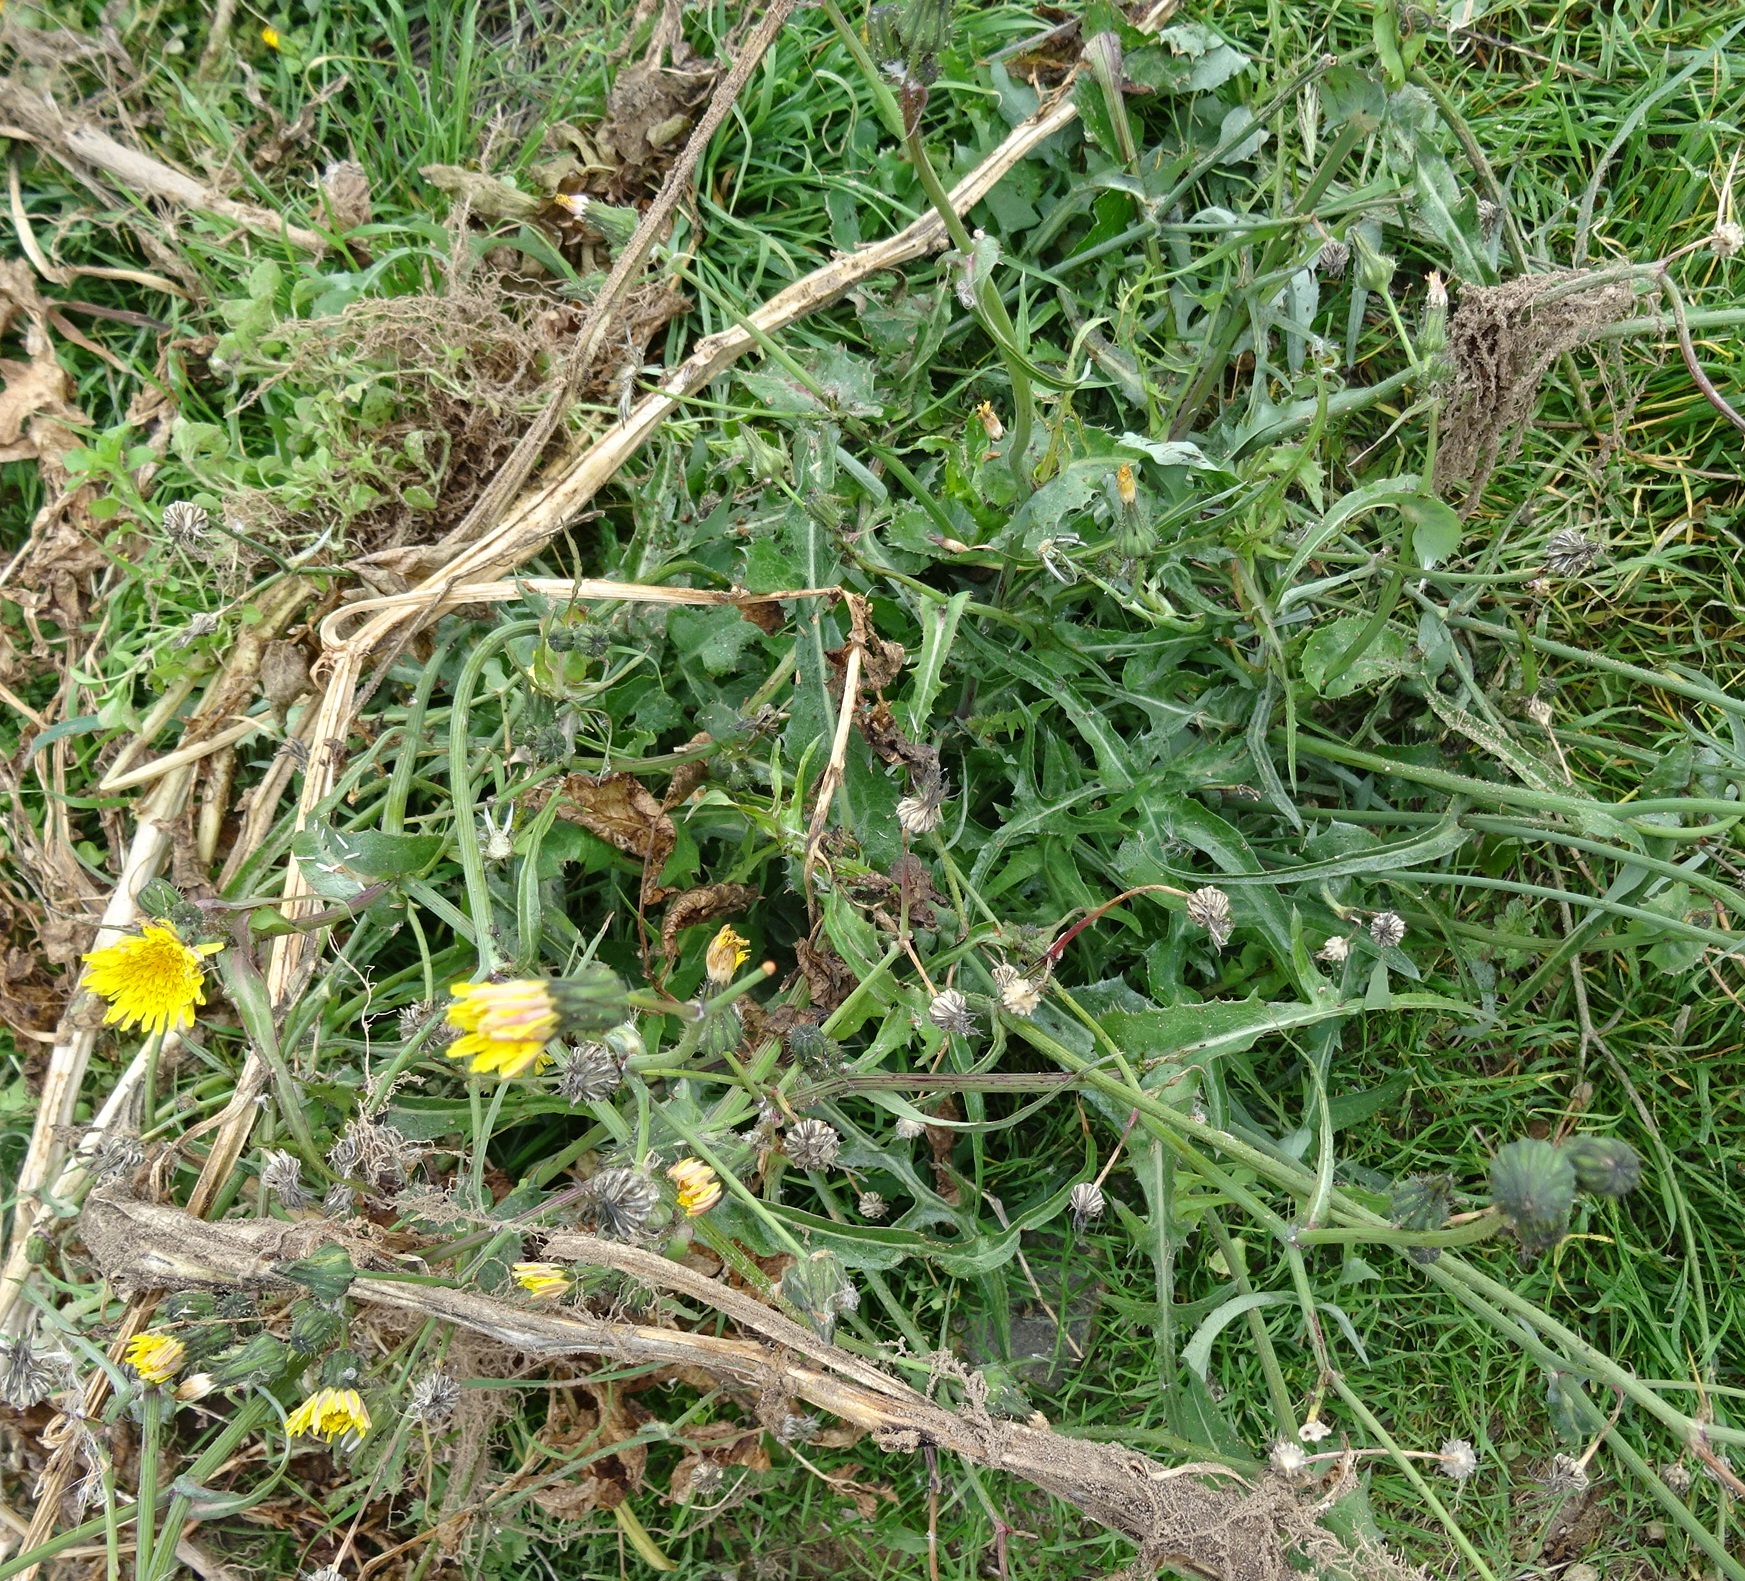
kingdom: Plantae
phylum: Tracheophyta
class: Magnoliopsida
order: Asterales
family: Asteraceae
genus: Sonchus
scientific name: Sonchus oleraceus
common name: Common sowthistle
